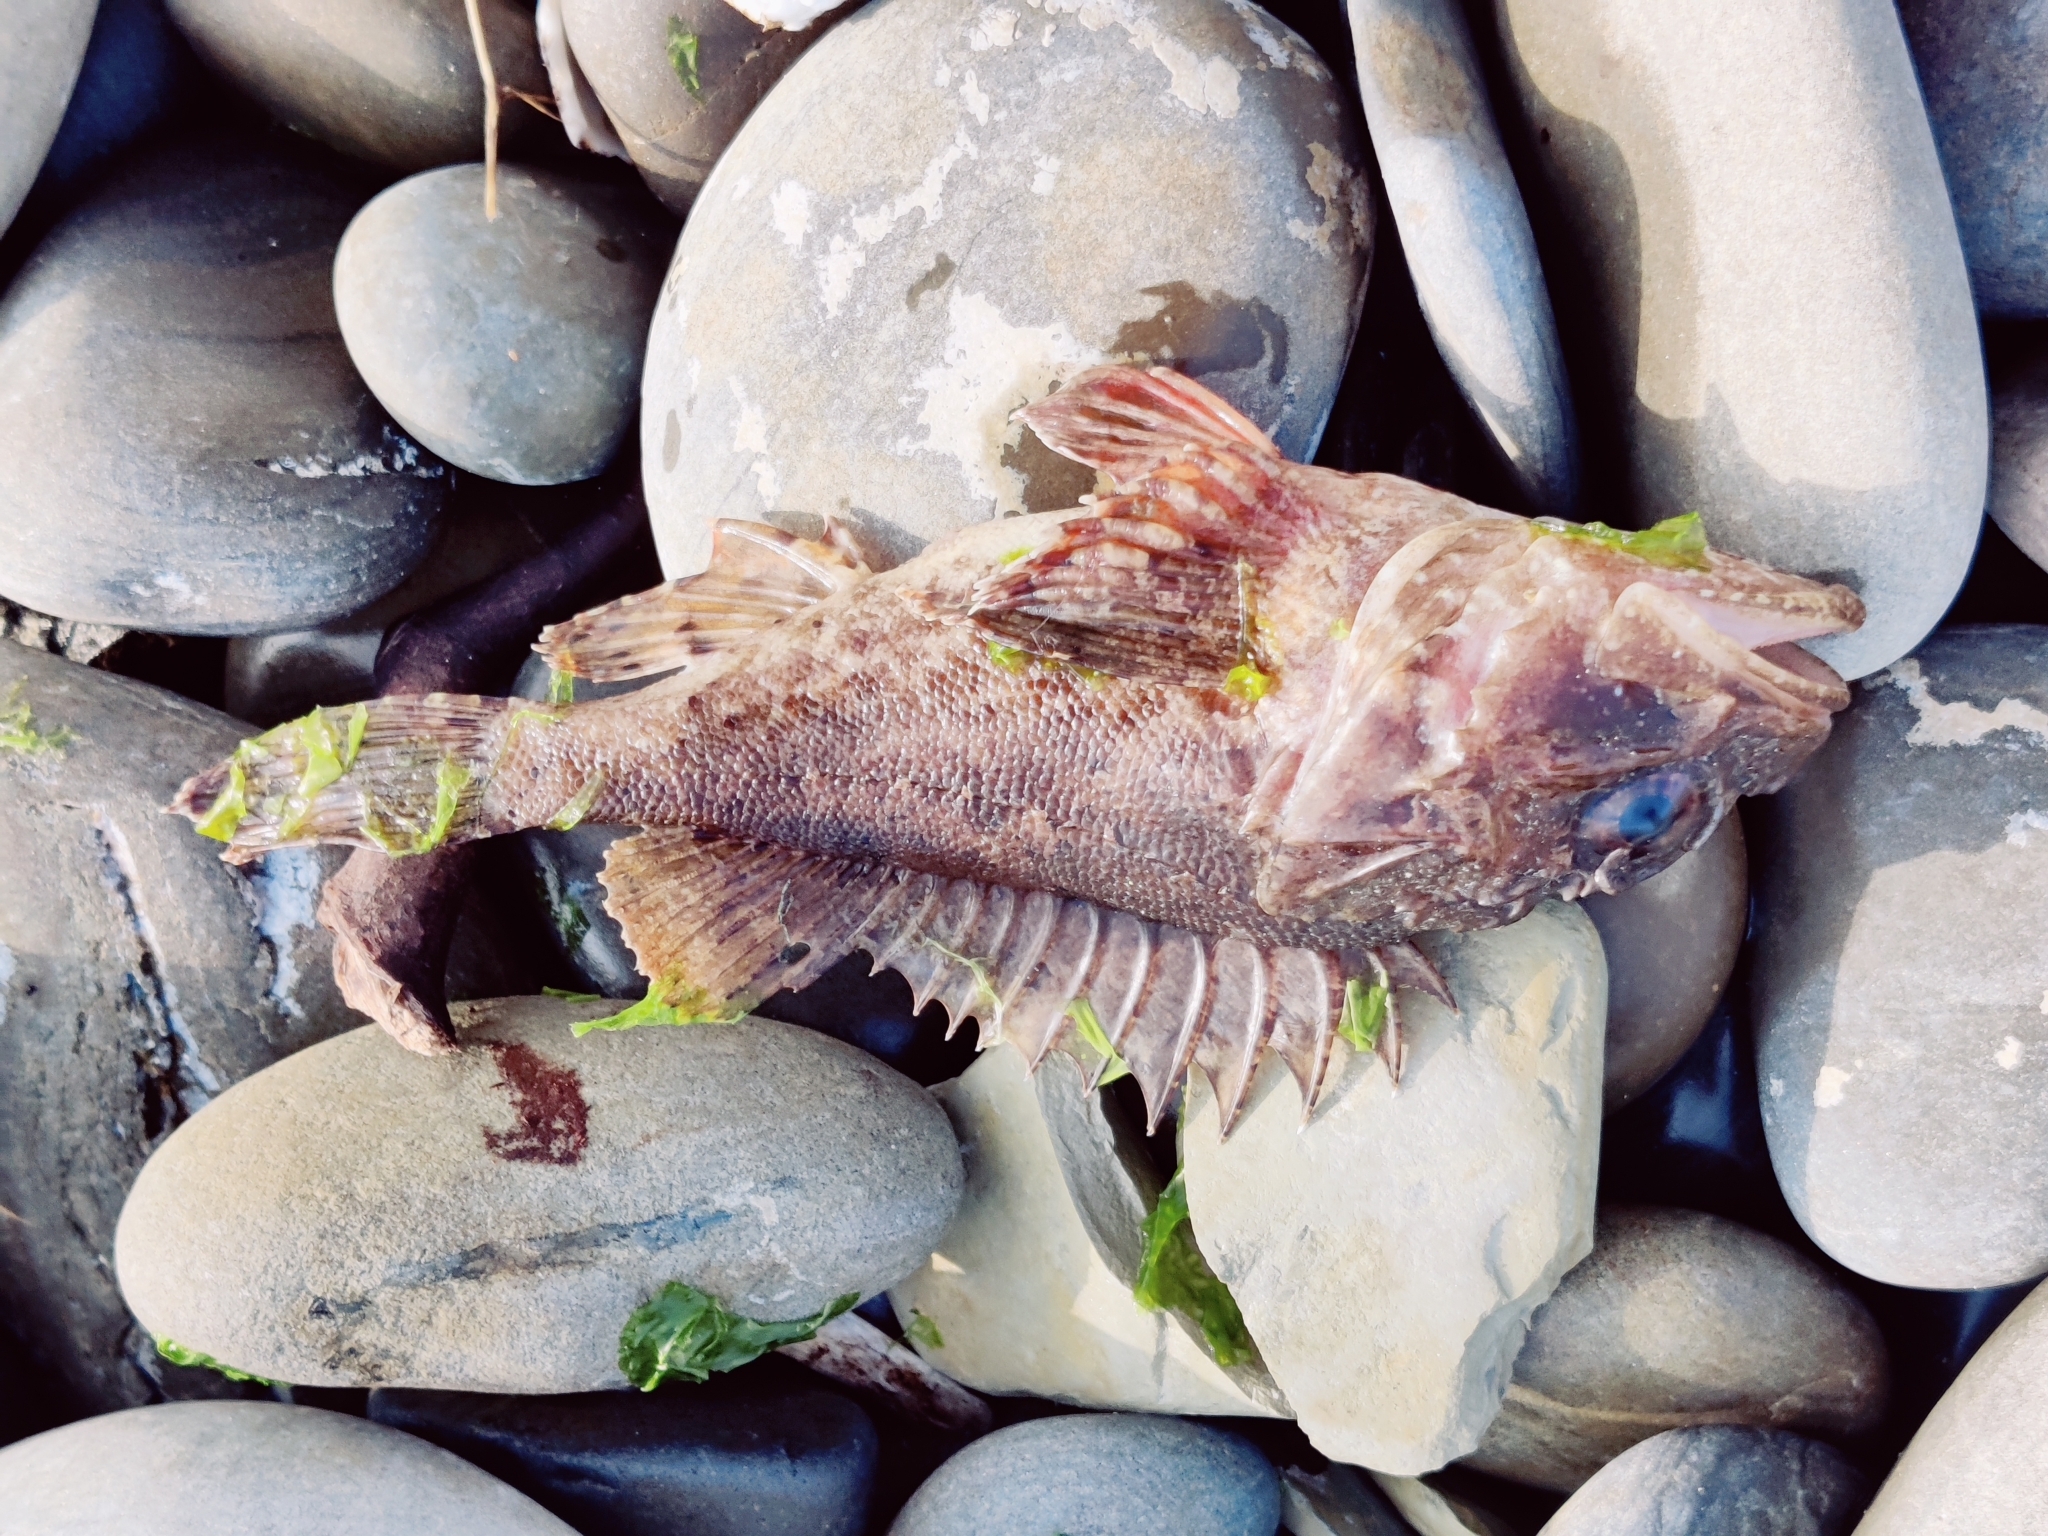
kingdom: Animalia
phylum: Chordata
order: Scorpaeniformes
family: Scorpaenidae
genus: Scorpaena
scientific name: Scorpaena porcus
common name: Black scorpionfish
